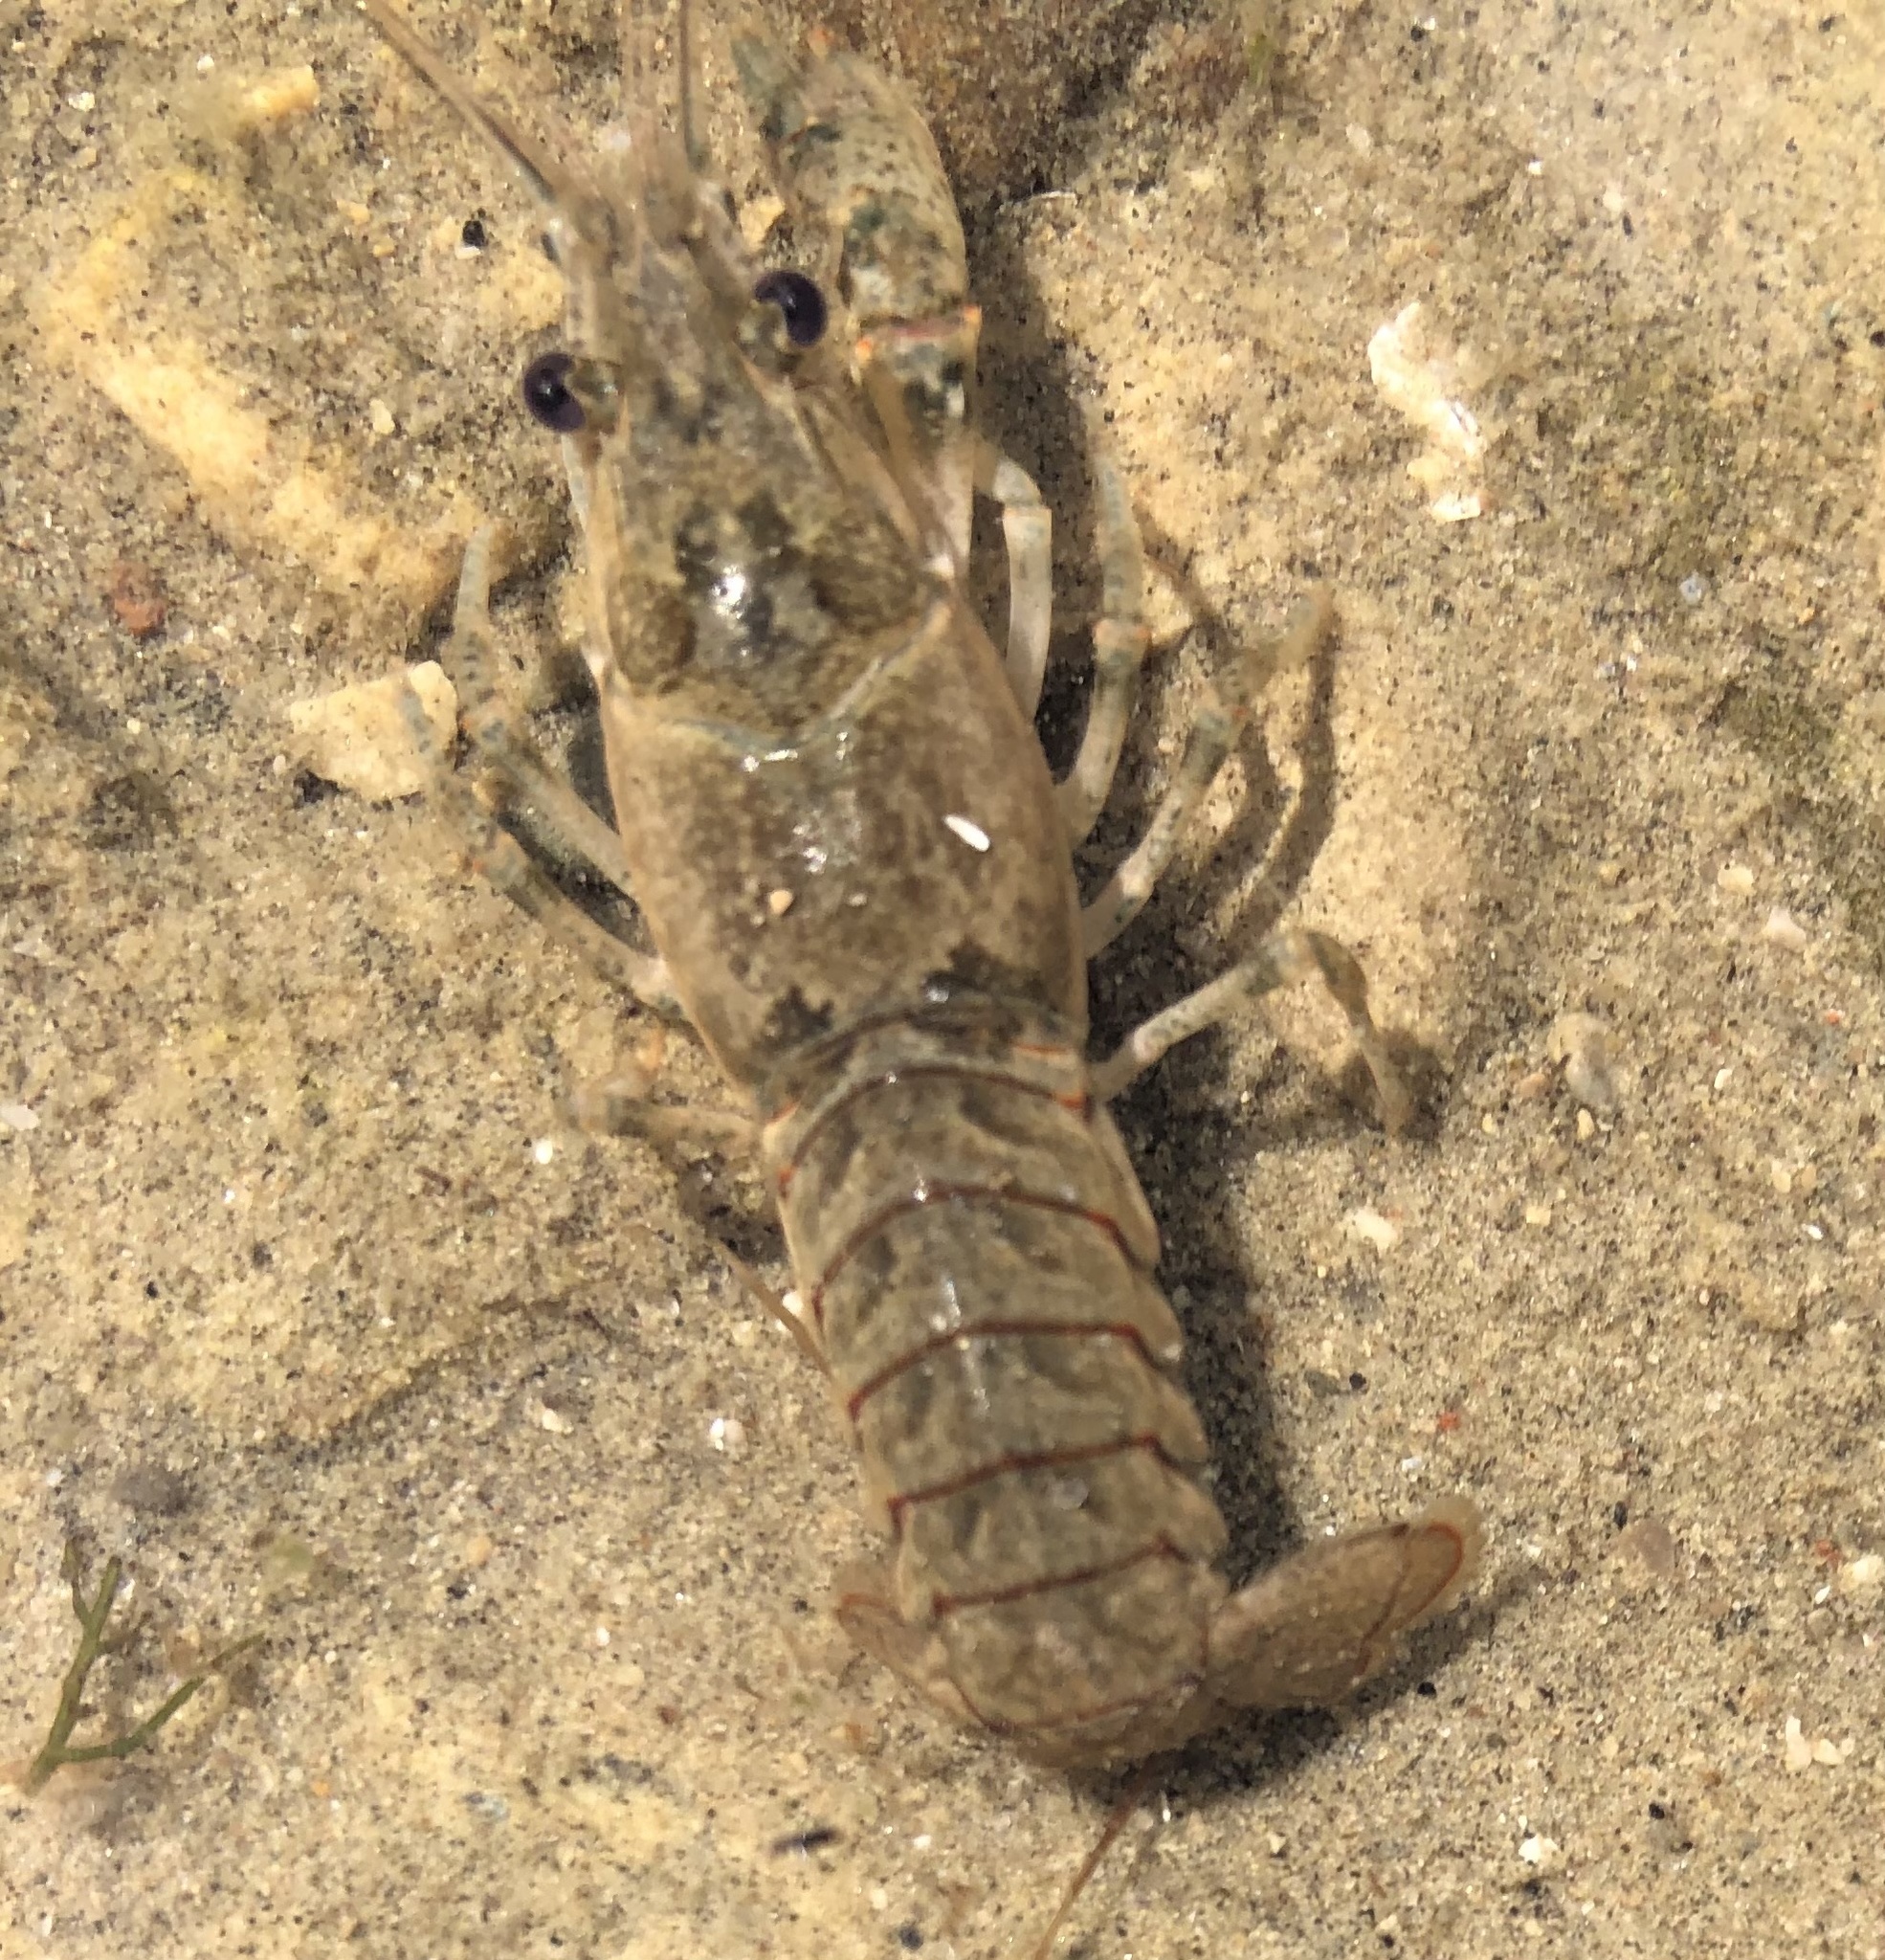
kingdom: Animalia
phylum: Arthropoda
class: Malacostraca
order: Decapoda
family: Cambaridae
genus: Faxonius
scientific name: Faxonius virilis
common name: Virile crayfish
